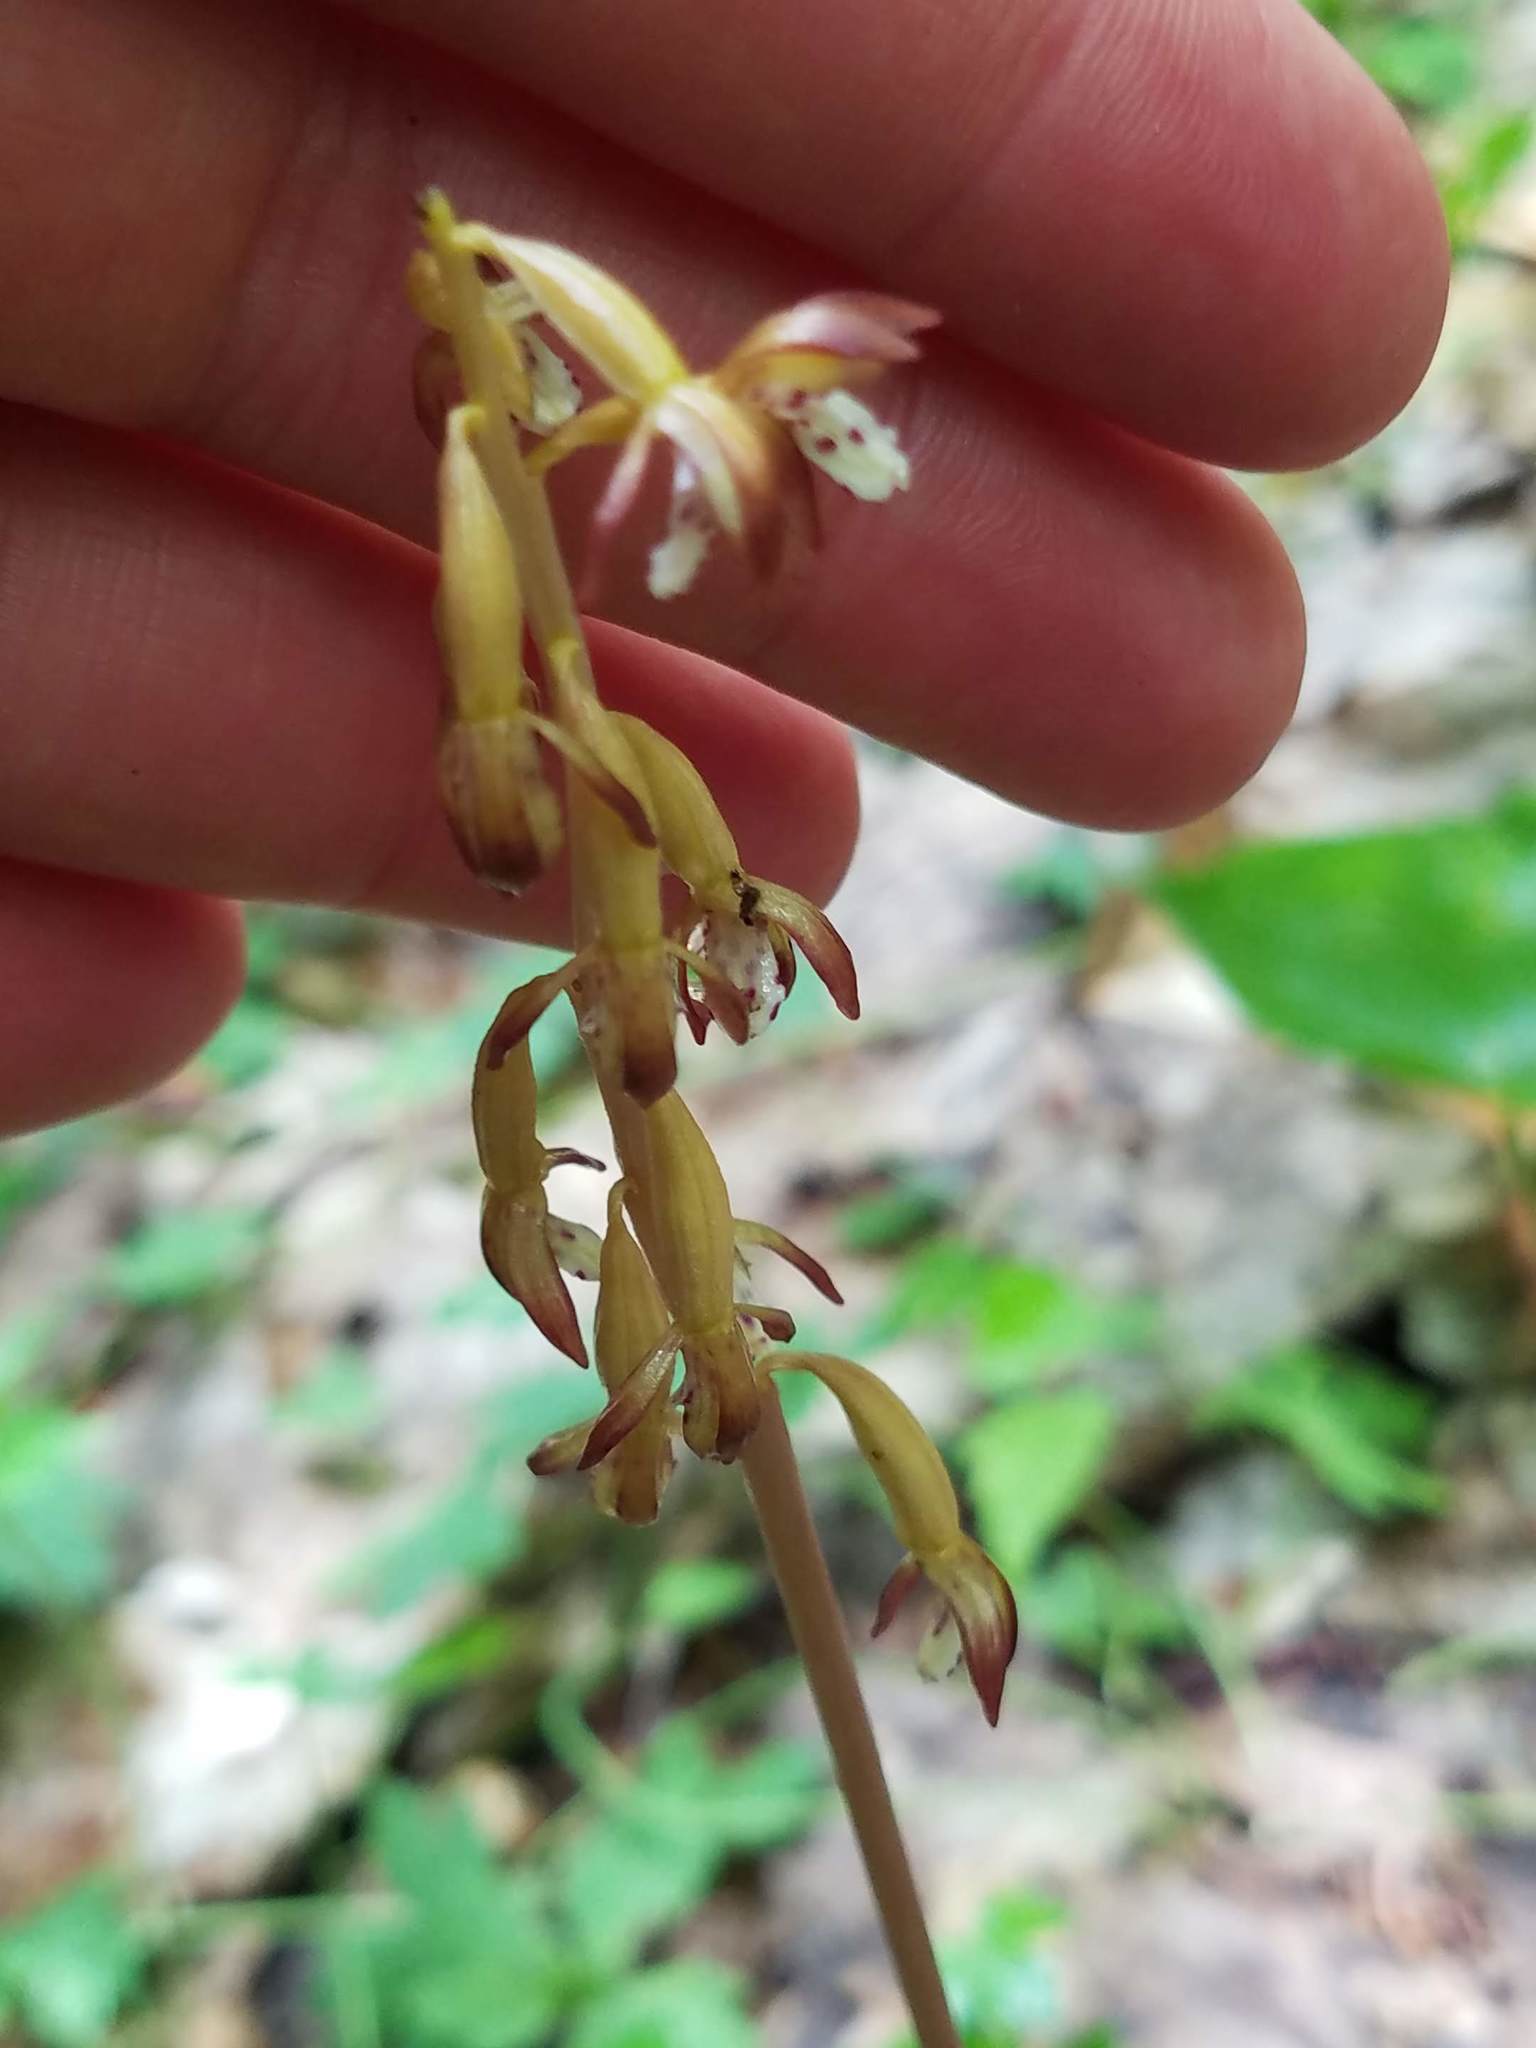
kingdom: Plantae
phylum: Tracheophyta
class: Liliopsida
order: Asparagales
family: Orchidaceae
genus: Corallorhiza
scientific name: Corallorhiza maculata
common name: Spotted coralroot
